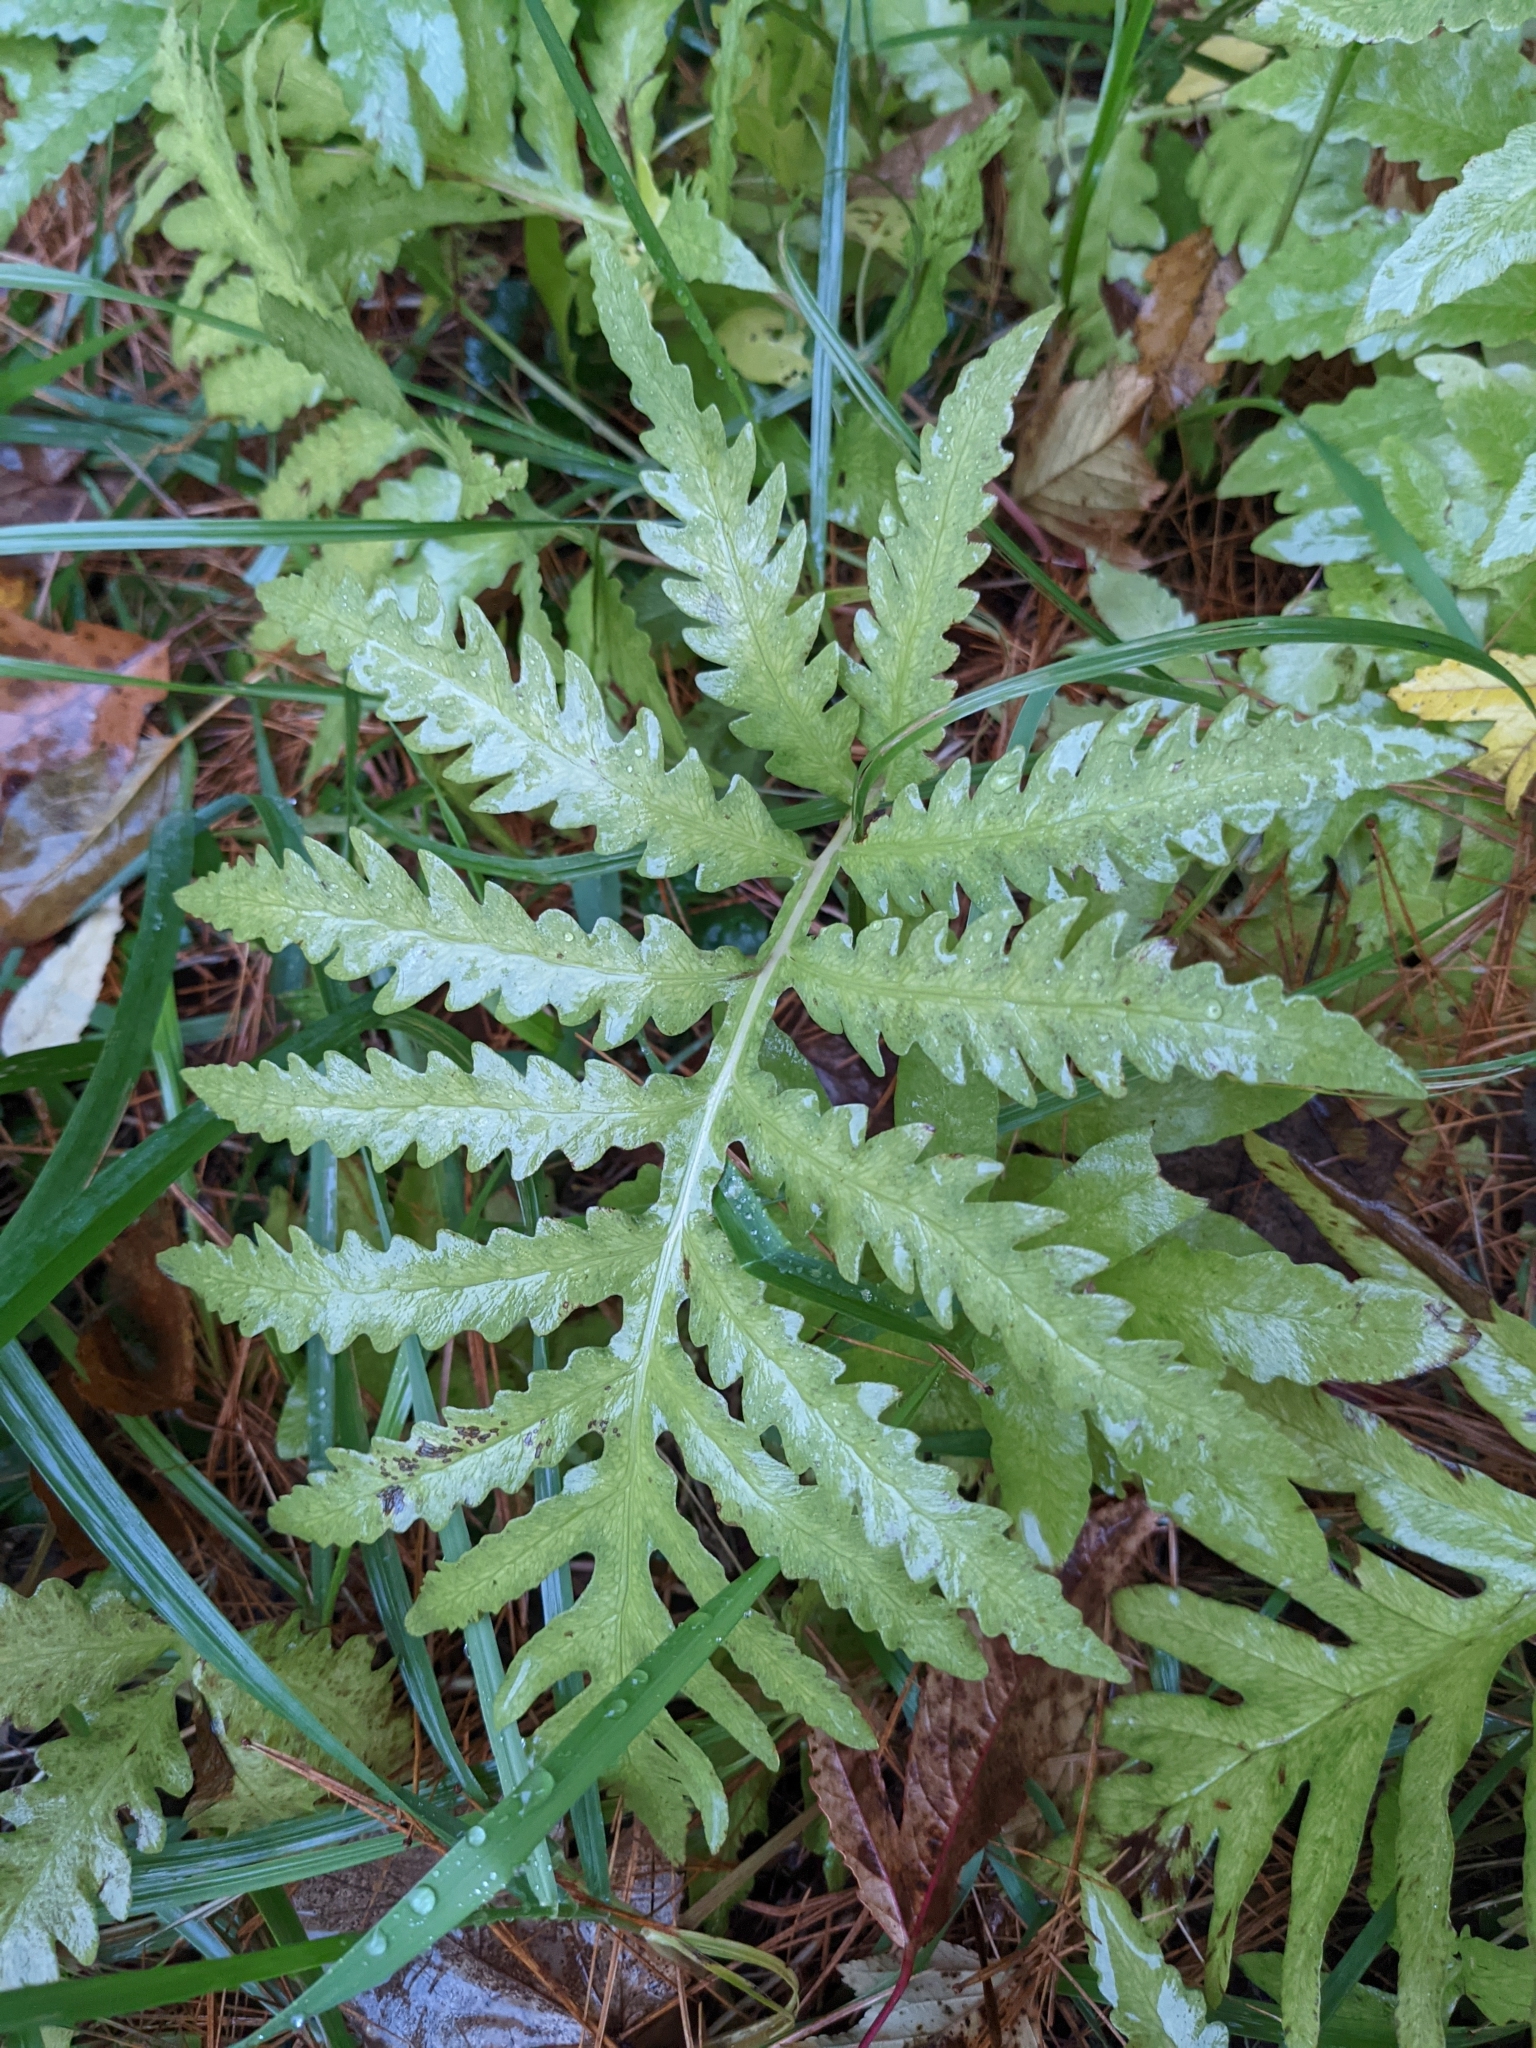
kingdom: Plantae
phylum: Tracheophyta
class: Polypodiopsida
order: Polypodiales
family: Onocleaceae
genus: Onoclea
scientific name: Onoclea sensibilis
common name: Sensitive fern
